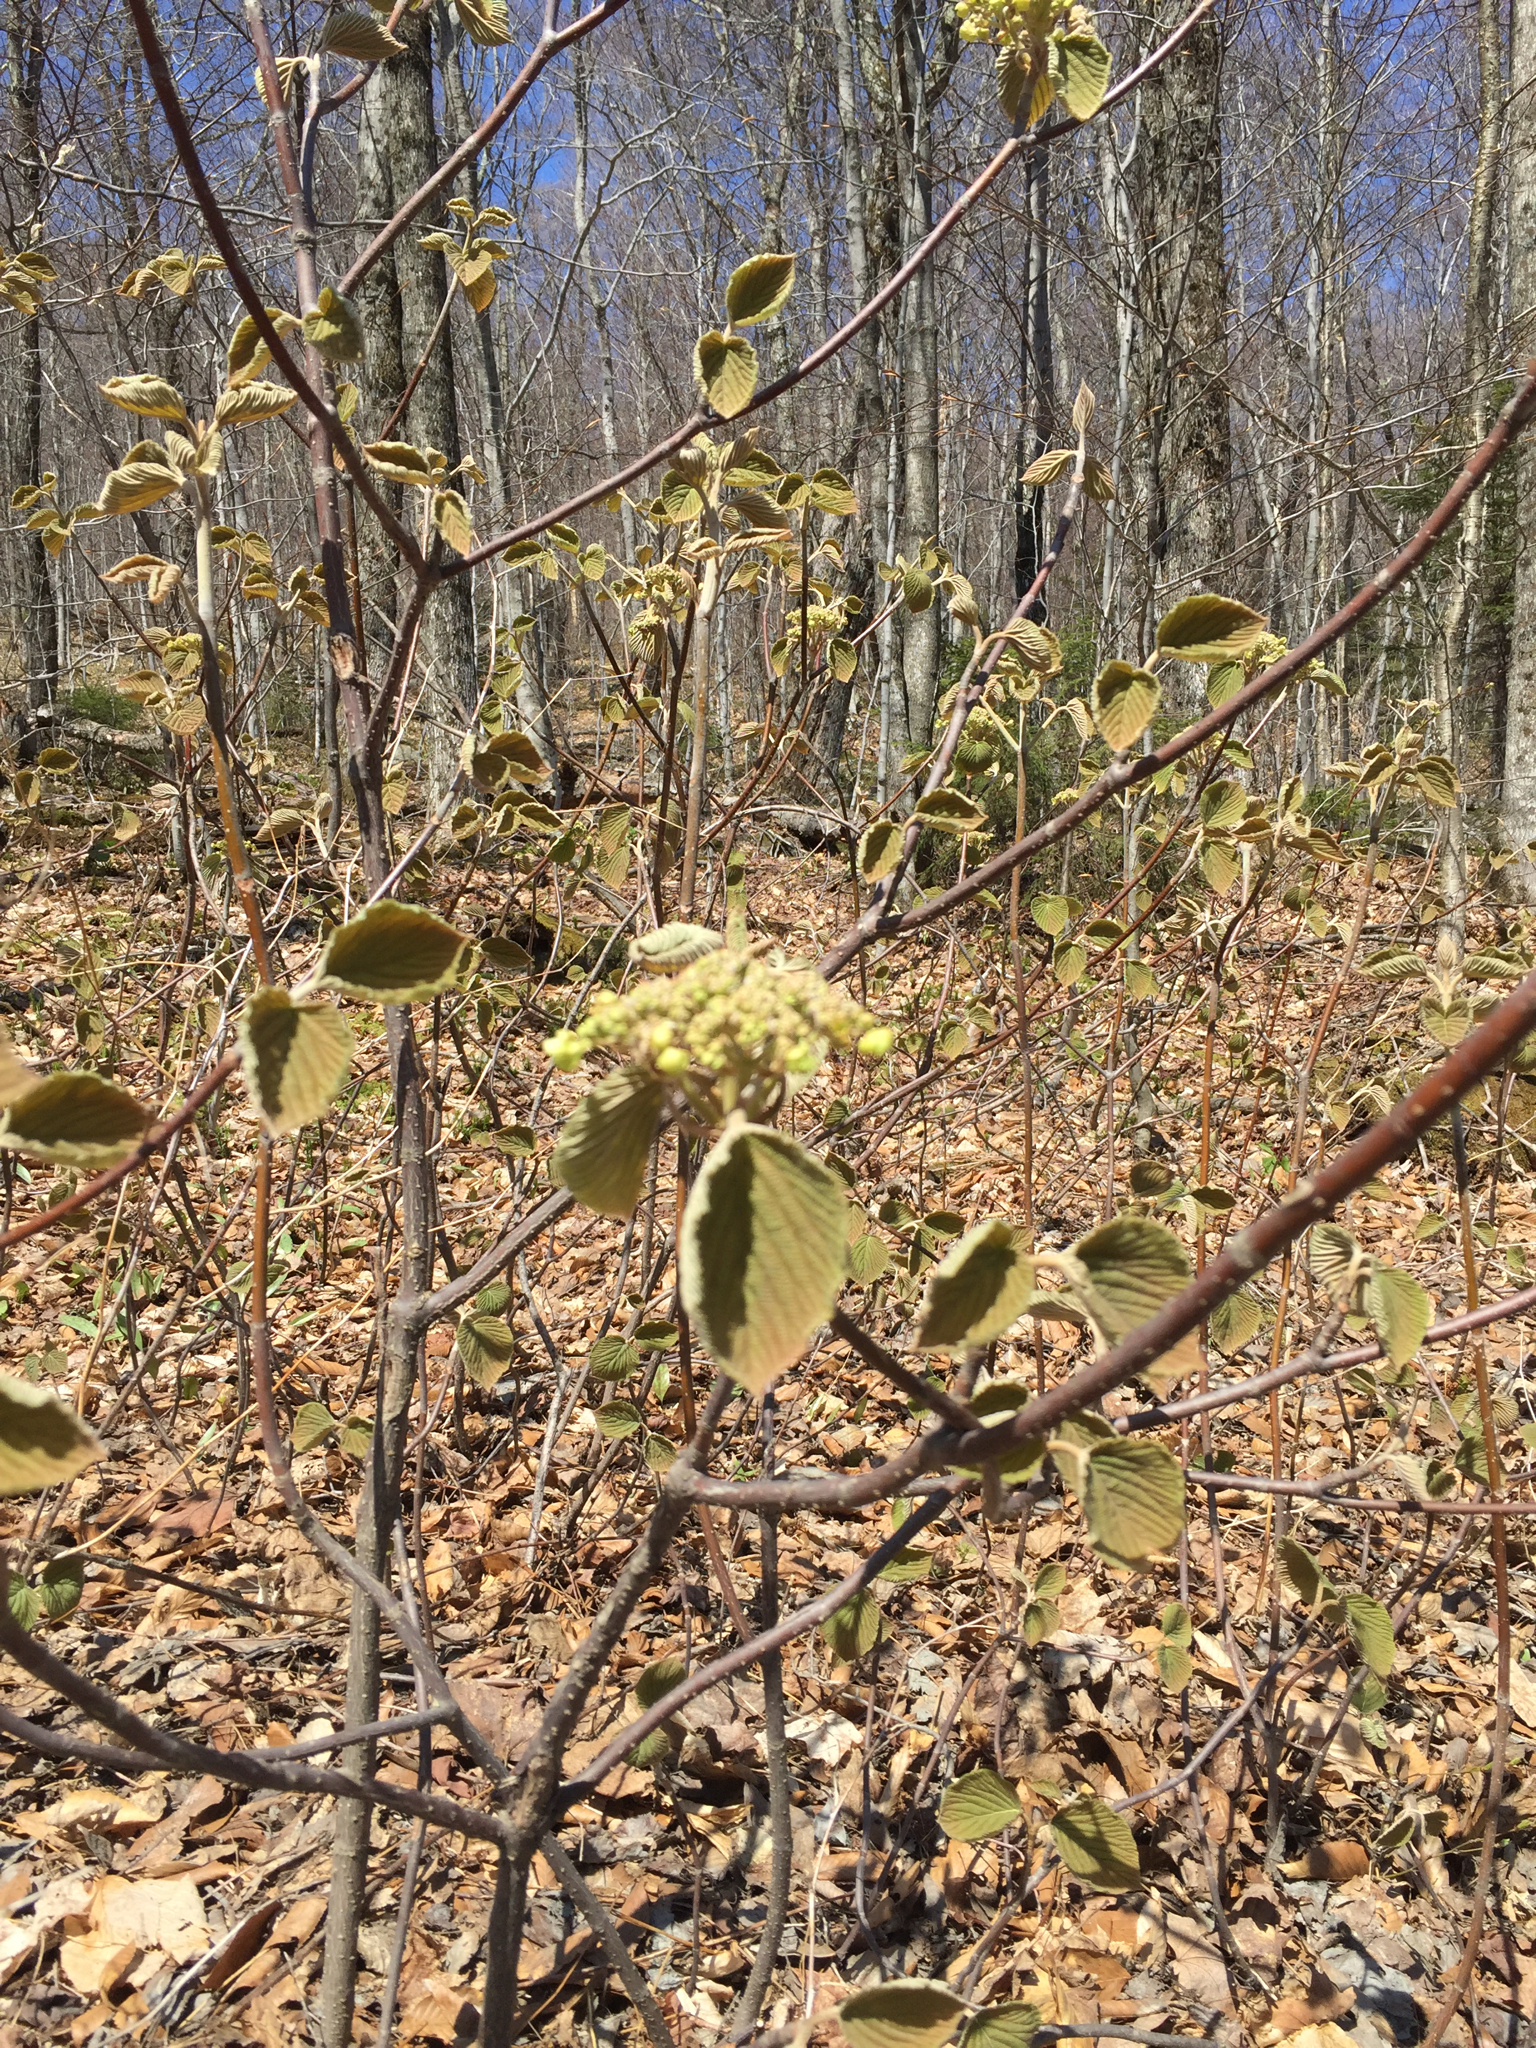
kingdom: Plantae
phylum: Tracheophyta
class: Magnoliopsida
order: Dipsacales
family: Viburnaceae
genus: Viburnum
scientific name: Viburnum lantanoides
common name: Hobblebush
